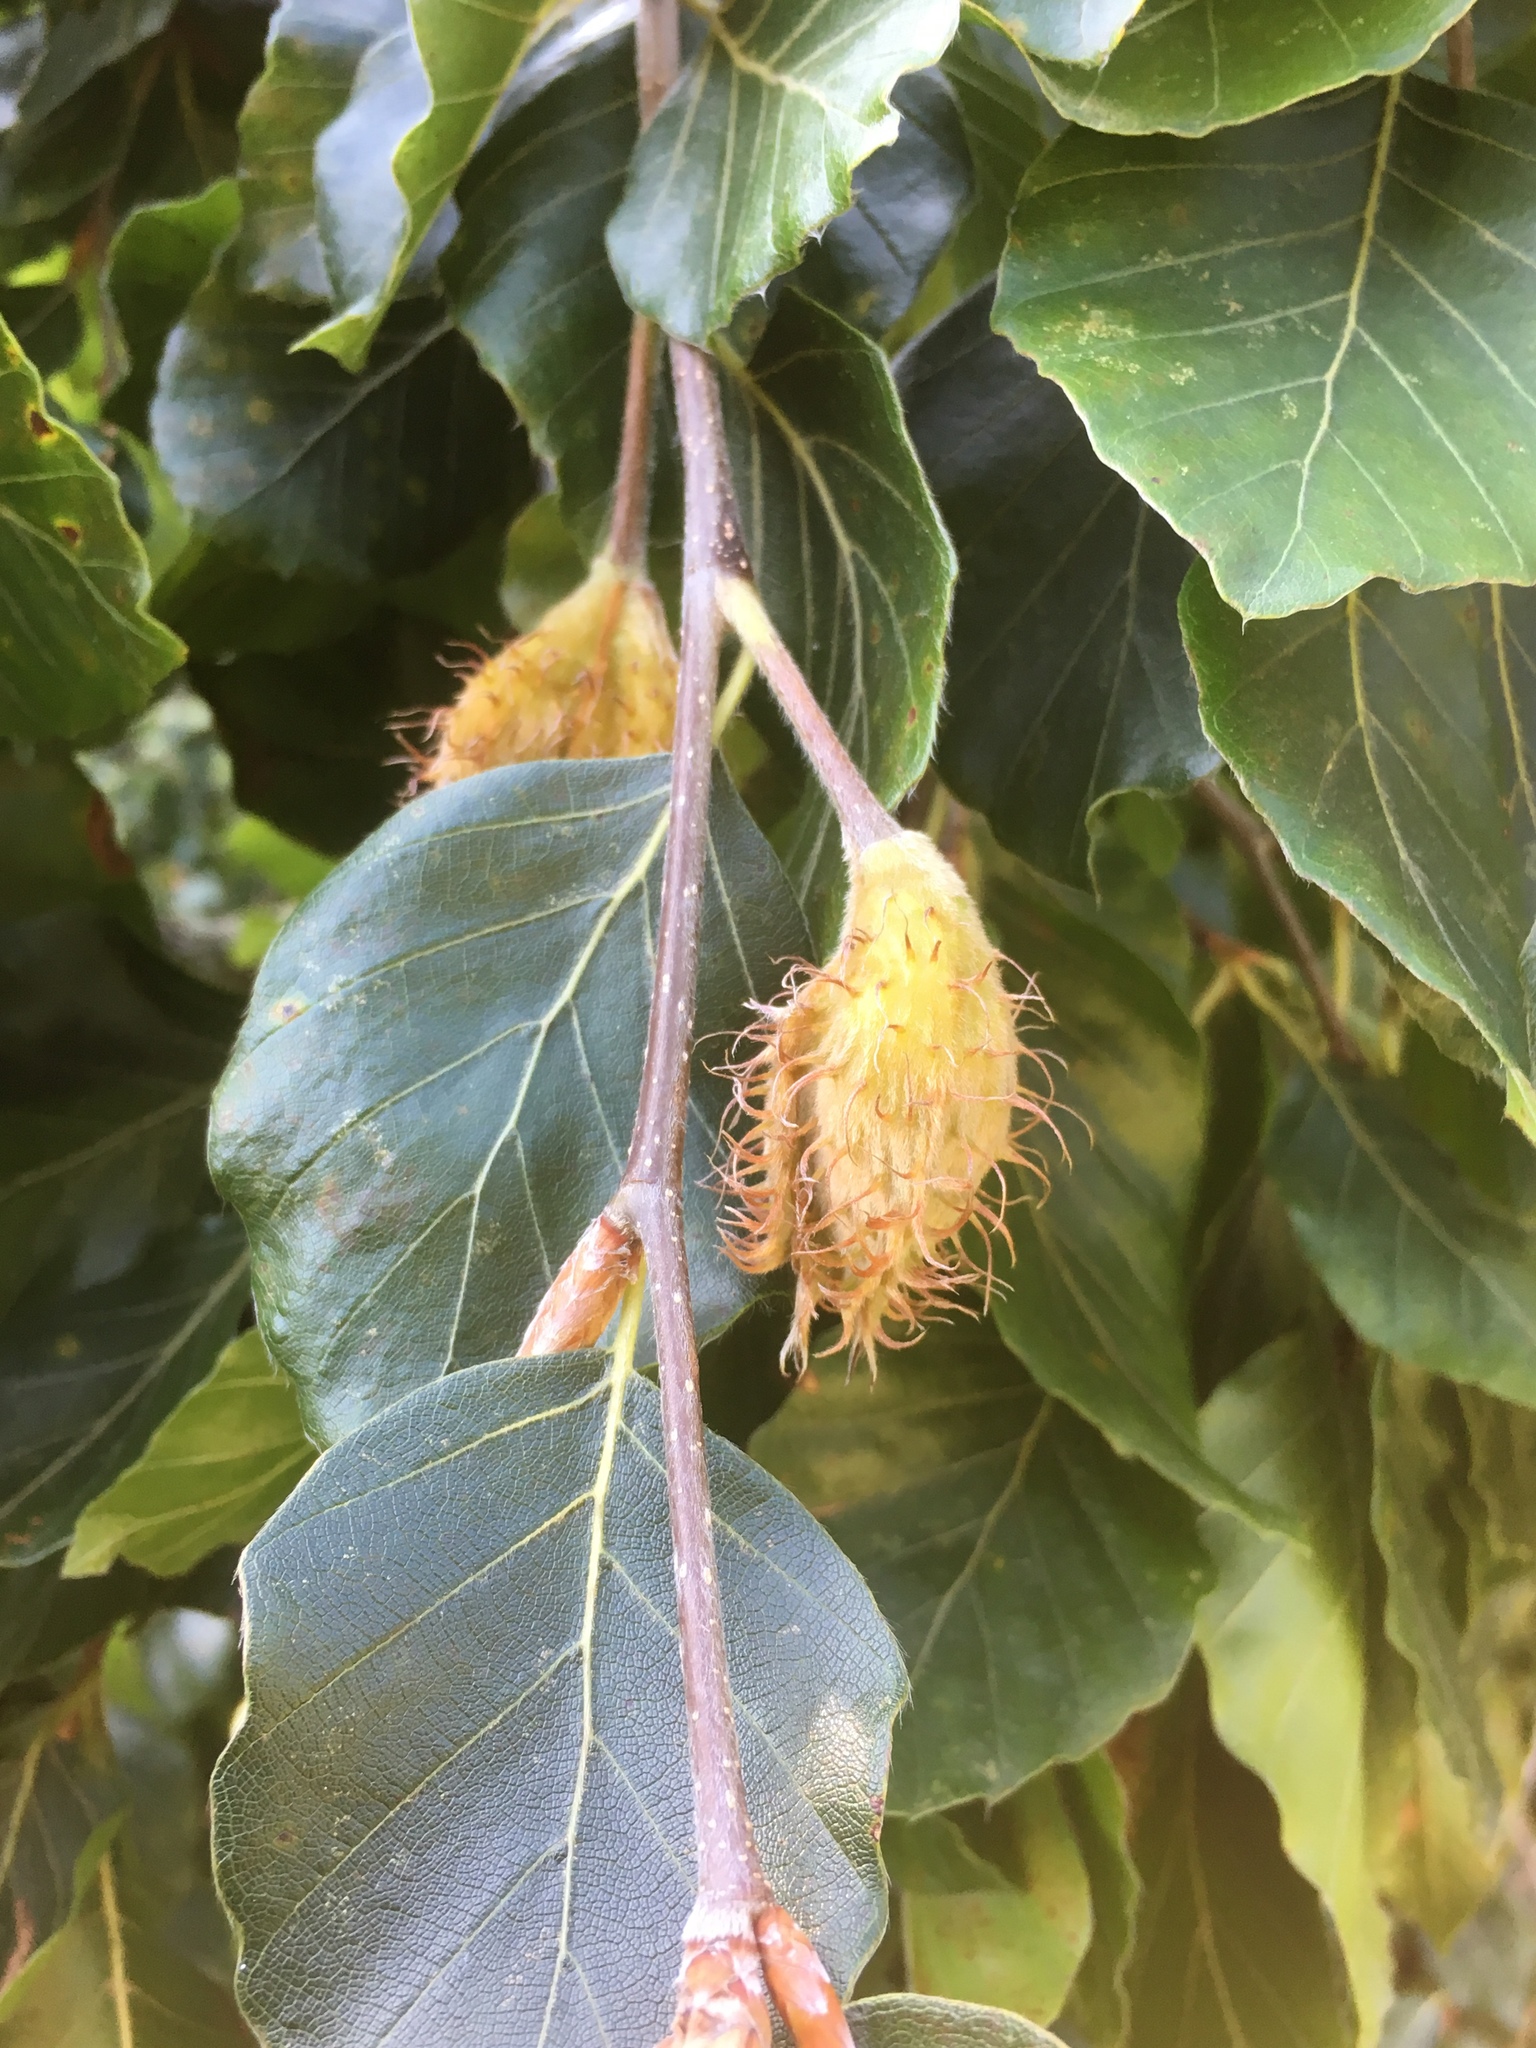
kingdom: Plantae
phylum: Tracheophyta
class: Magnoliopsida
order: Fagales
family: Fagaceae
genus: Fagus
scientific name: Fagus sylvatica
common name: Beech
